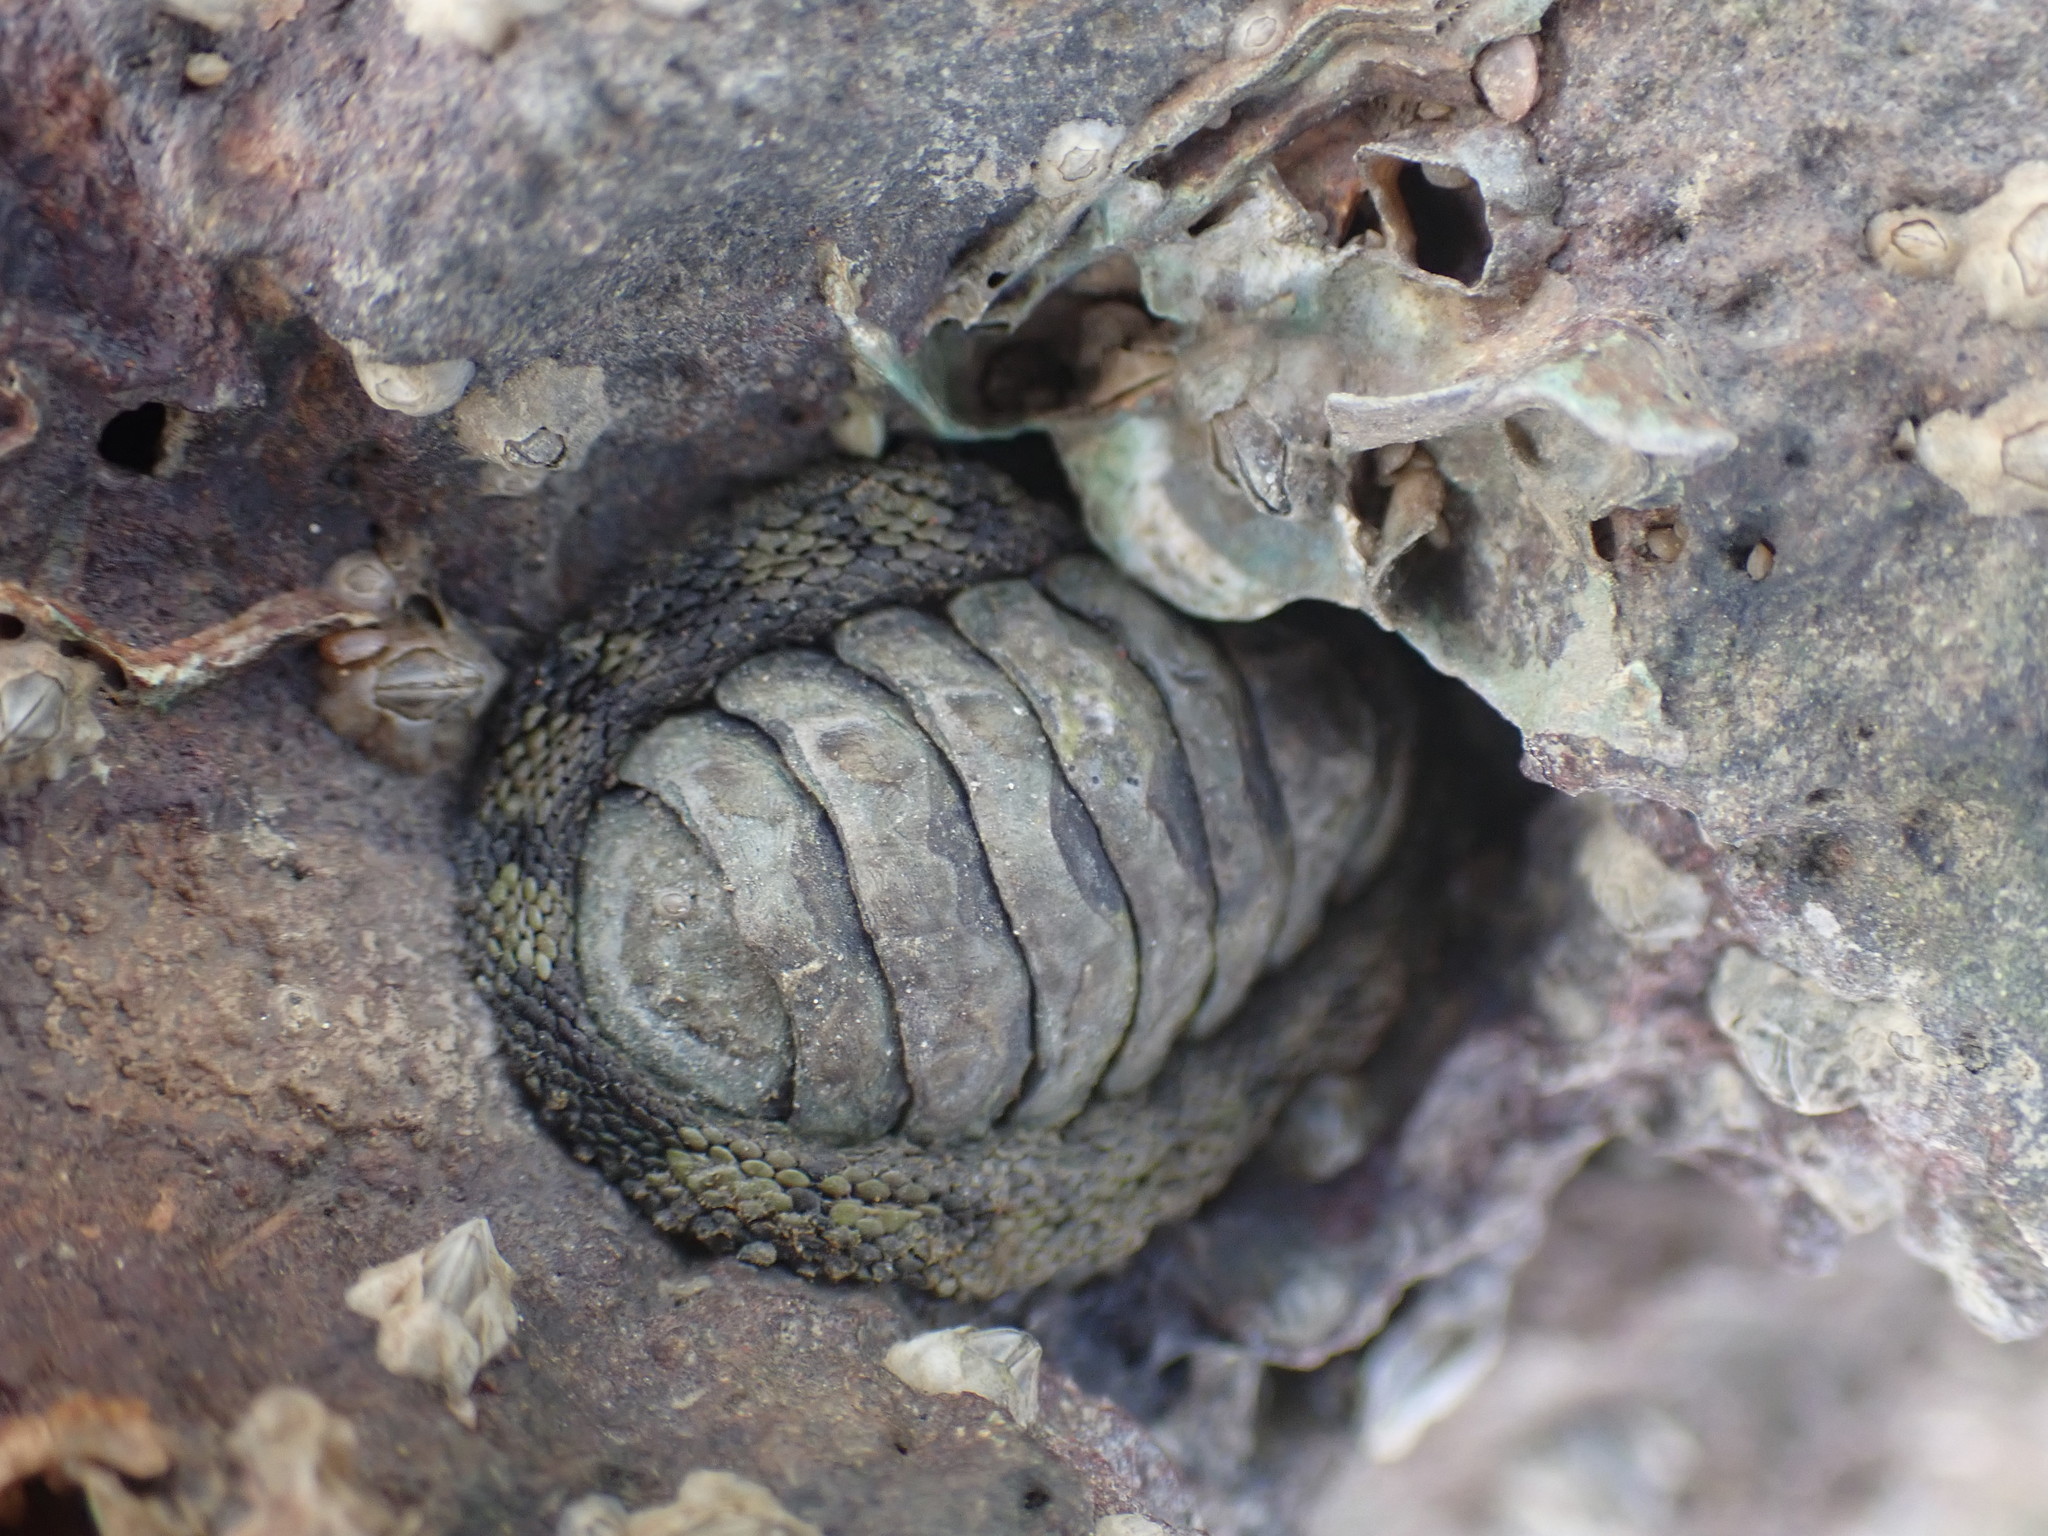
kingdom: Animalia
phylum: Mollusca
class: Polyplacophora
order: Chitonida
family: Chitonidae
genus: Sypharochiton
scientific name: Sypharochiton pelliserpentis
